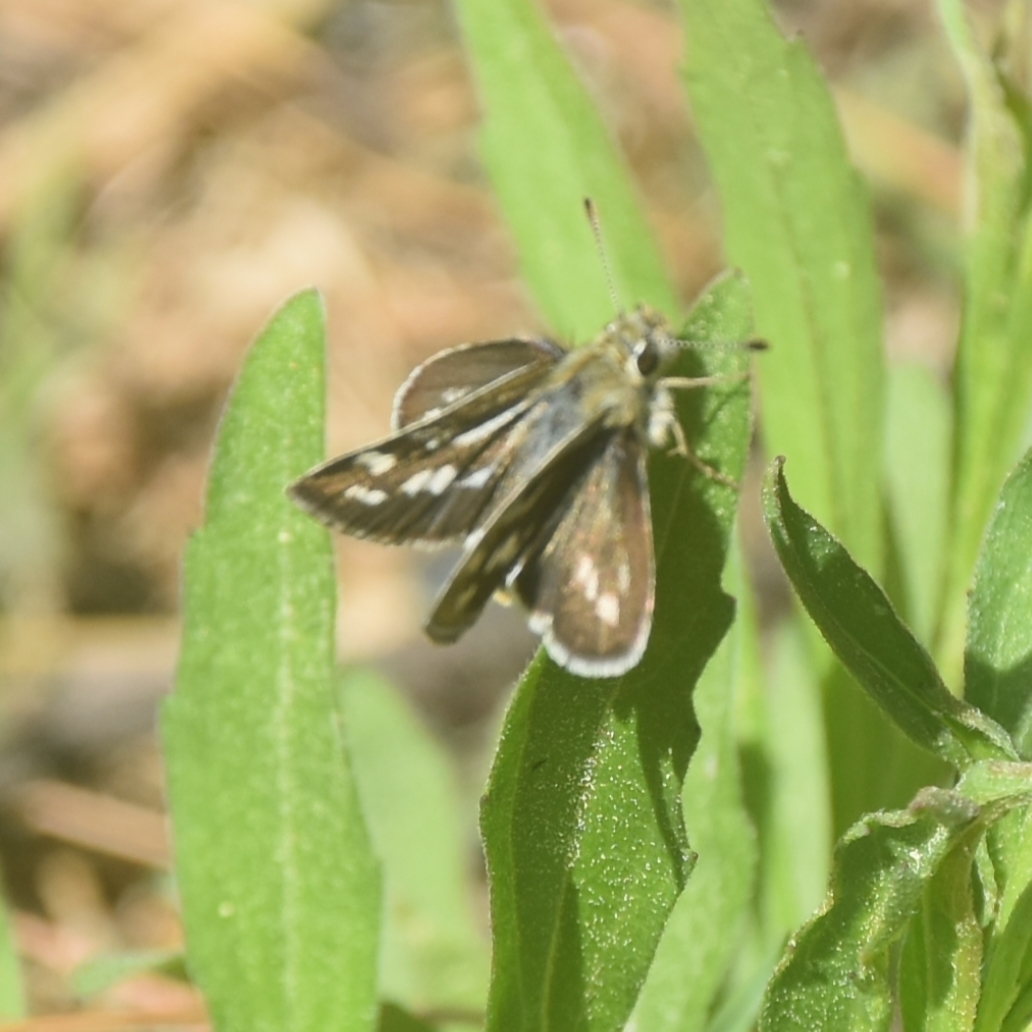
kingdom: Animalia
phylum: Arthropoda
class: Insecta
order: Lepidoptera
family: Hesperiidae
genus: Taractrocera
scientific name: Taractrocera danna
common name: Himalayan grass dart
